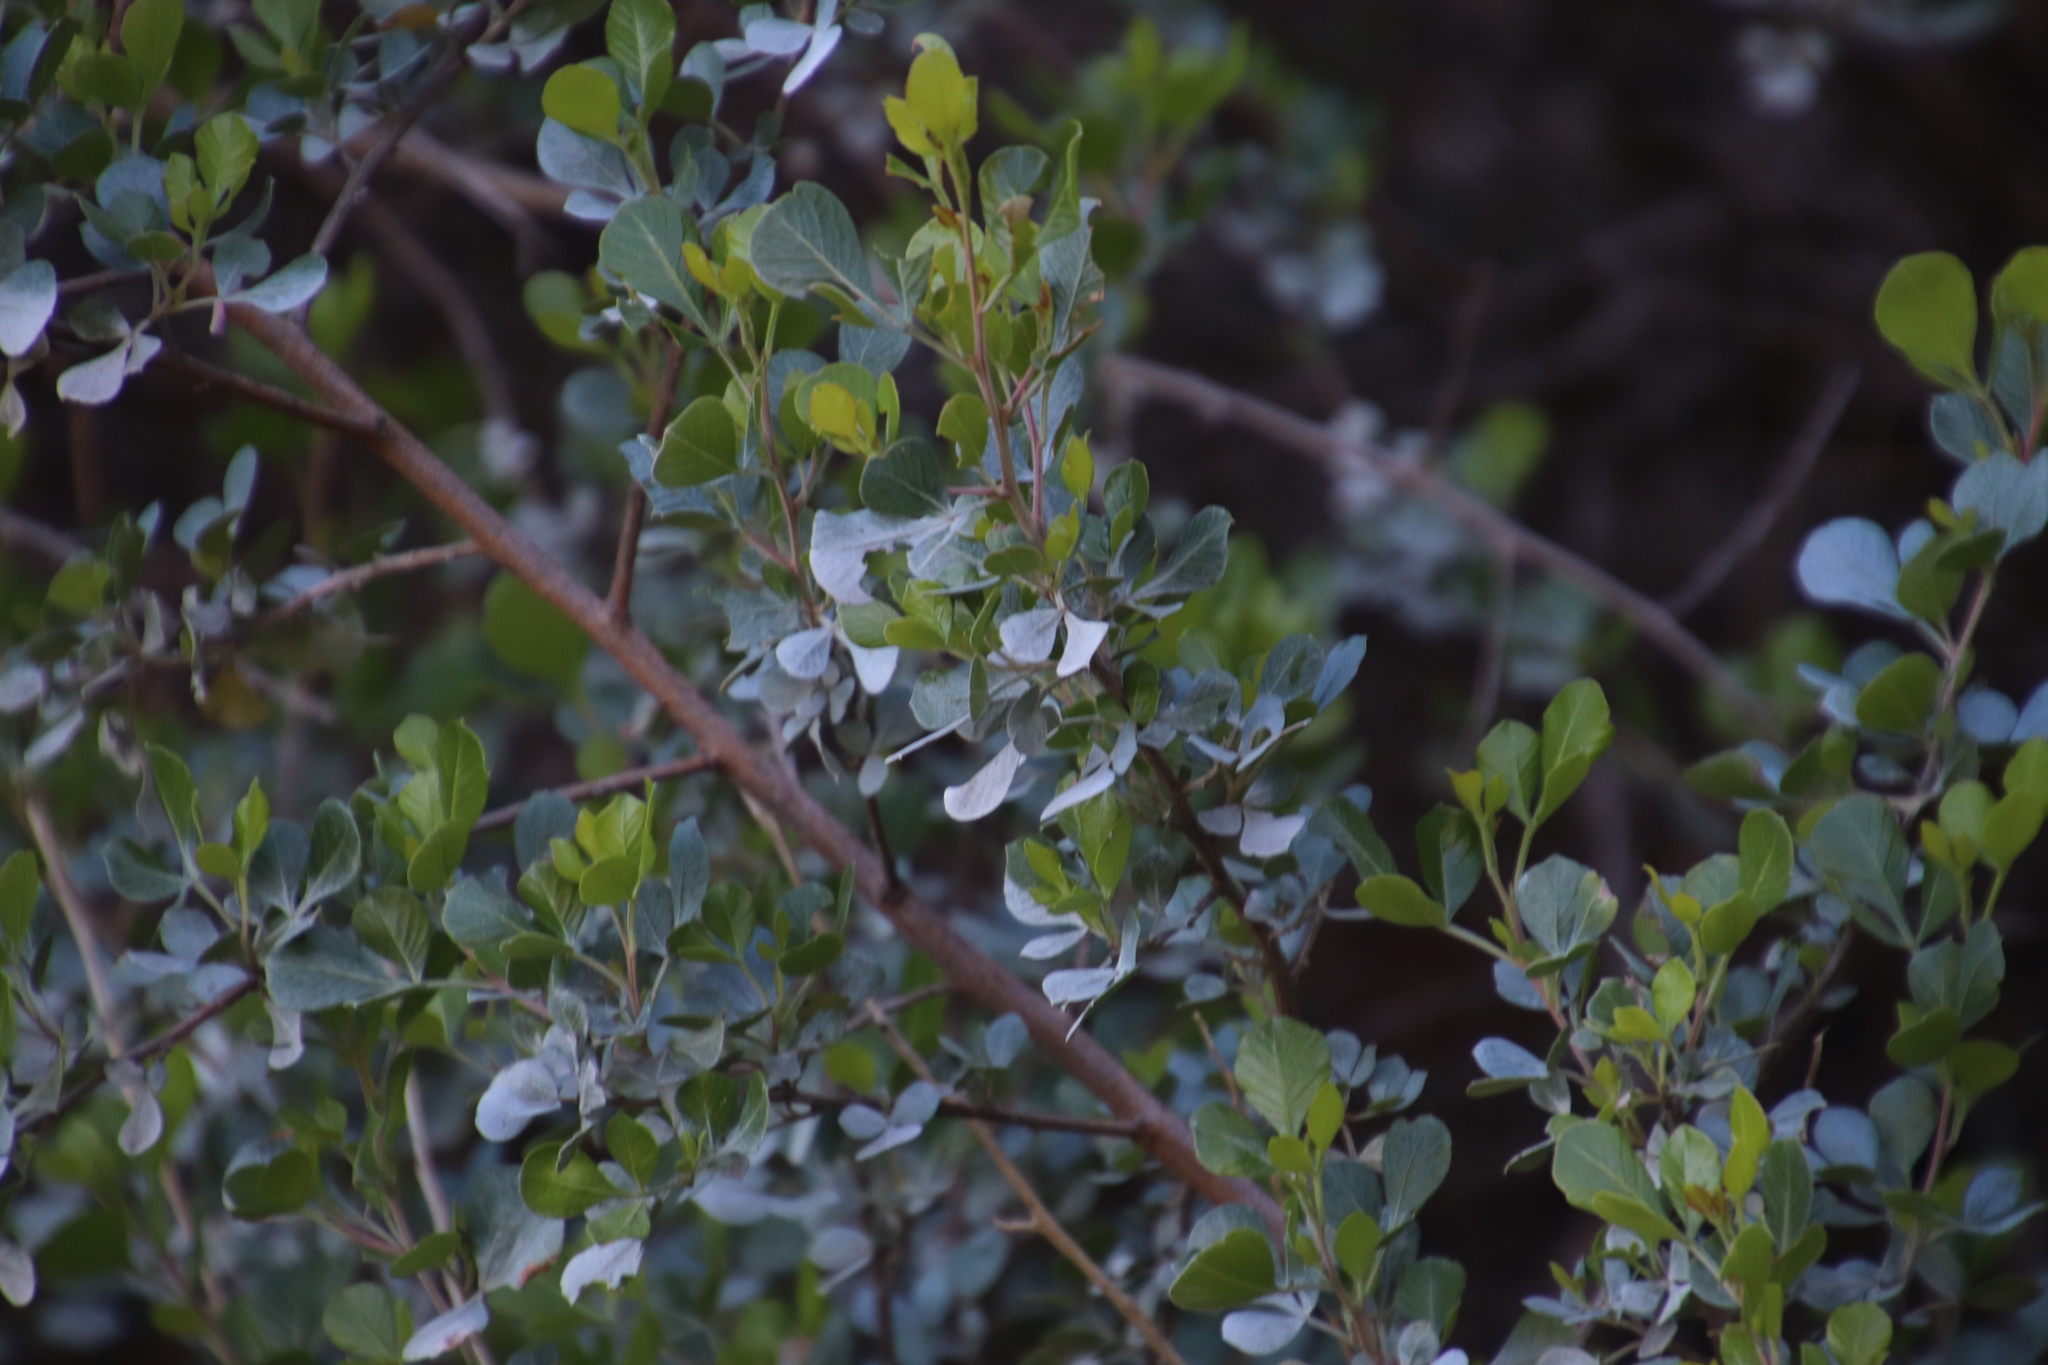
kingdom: Plantae
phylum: Tracheophyta
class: Magnoliopsida
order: Sapindales
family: Anacardiaceae
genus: Searsia
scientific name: Searsia glauca
